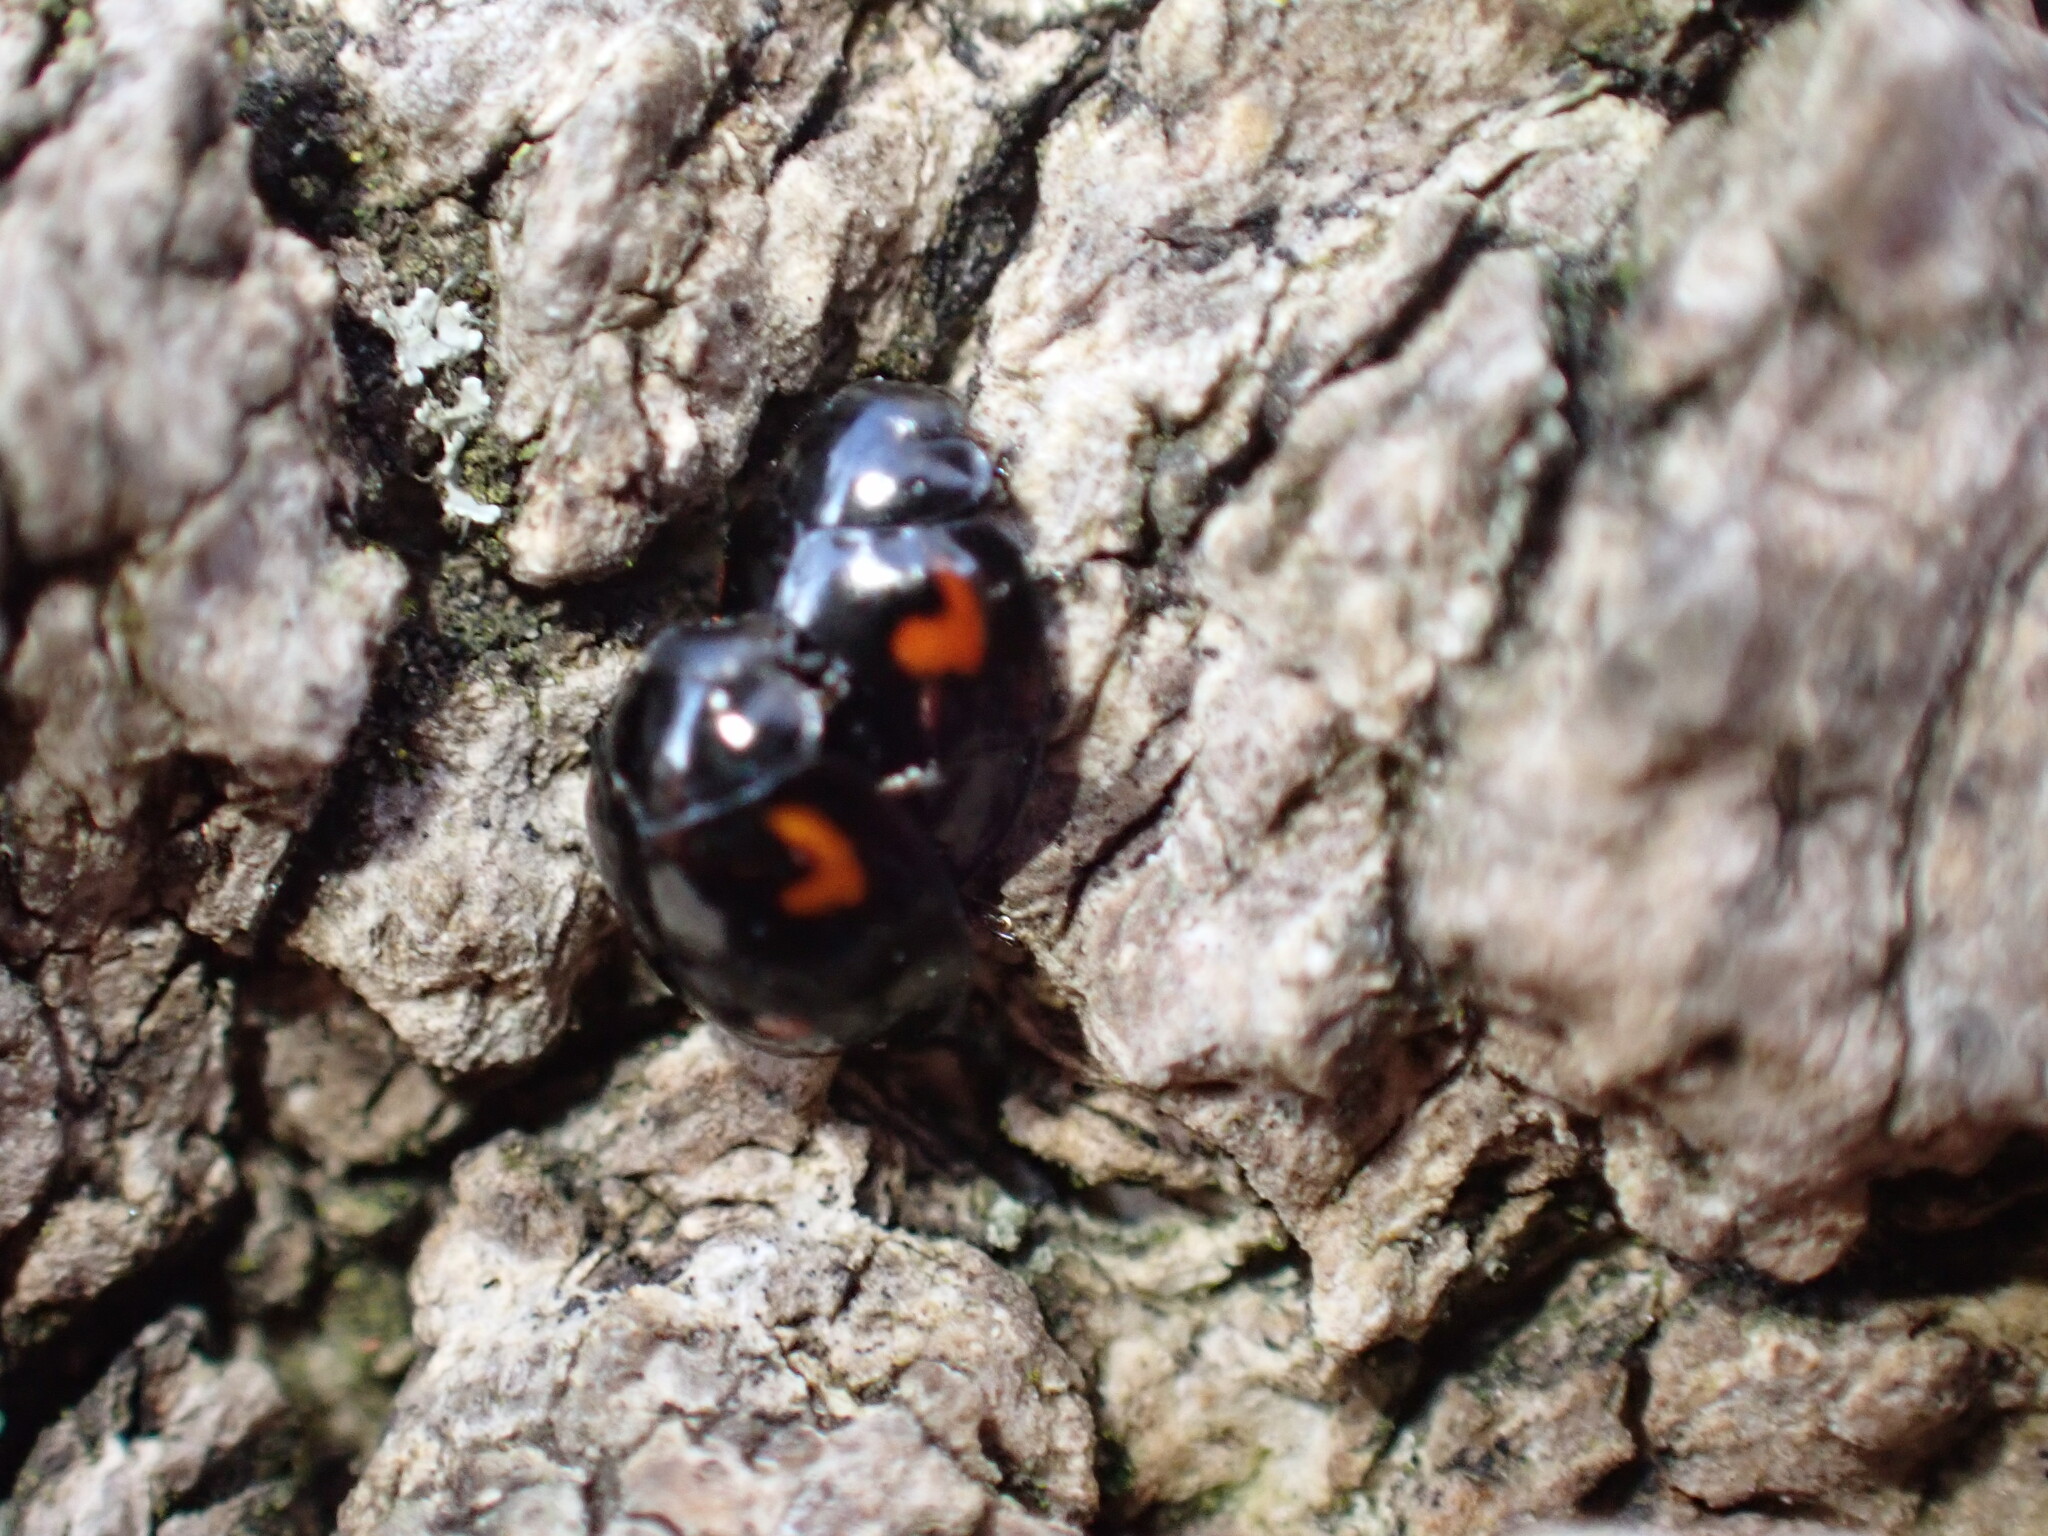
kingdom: Animalia
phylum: Arthropoda
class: Insecta
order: Coleoptera
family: Coccinellidae
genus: Brumus
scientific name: Brumus quadripustulatus
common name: Ladybird beetle
